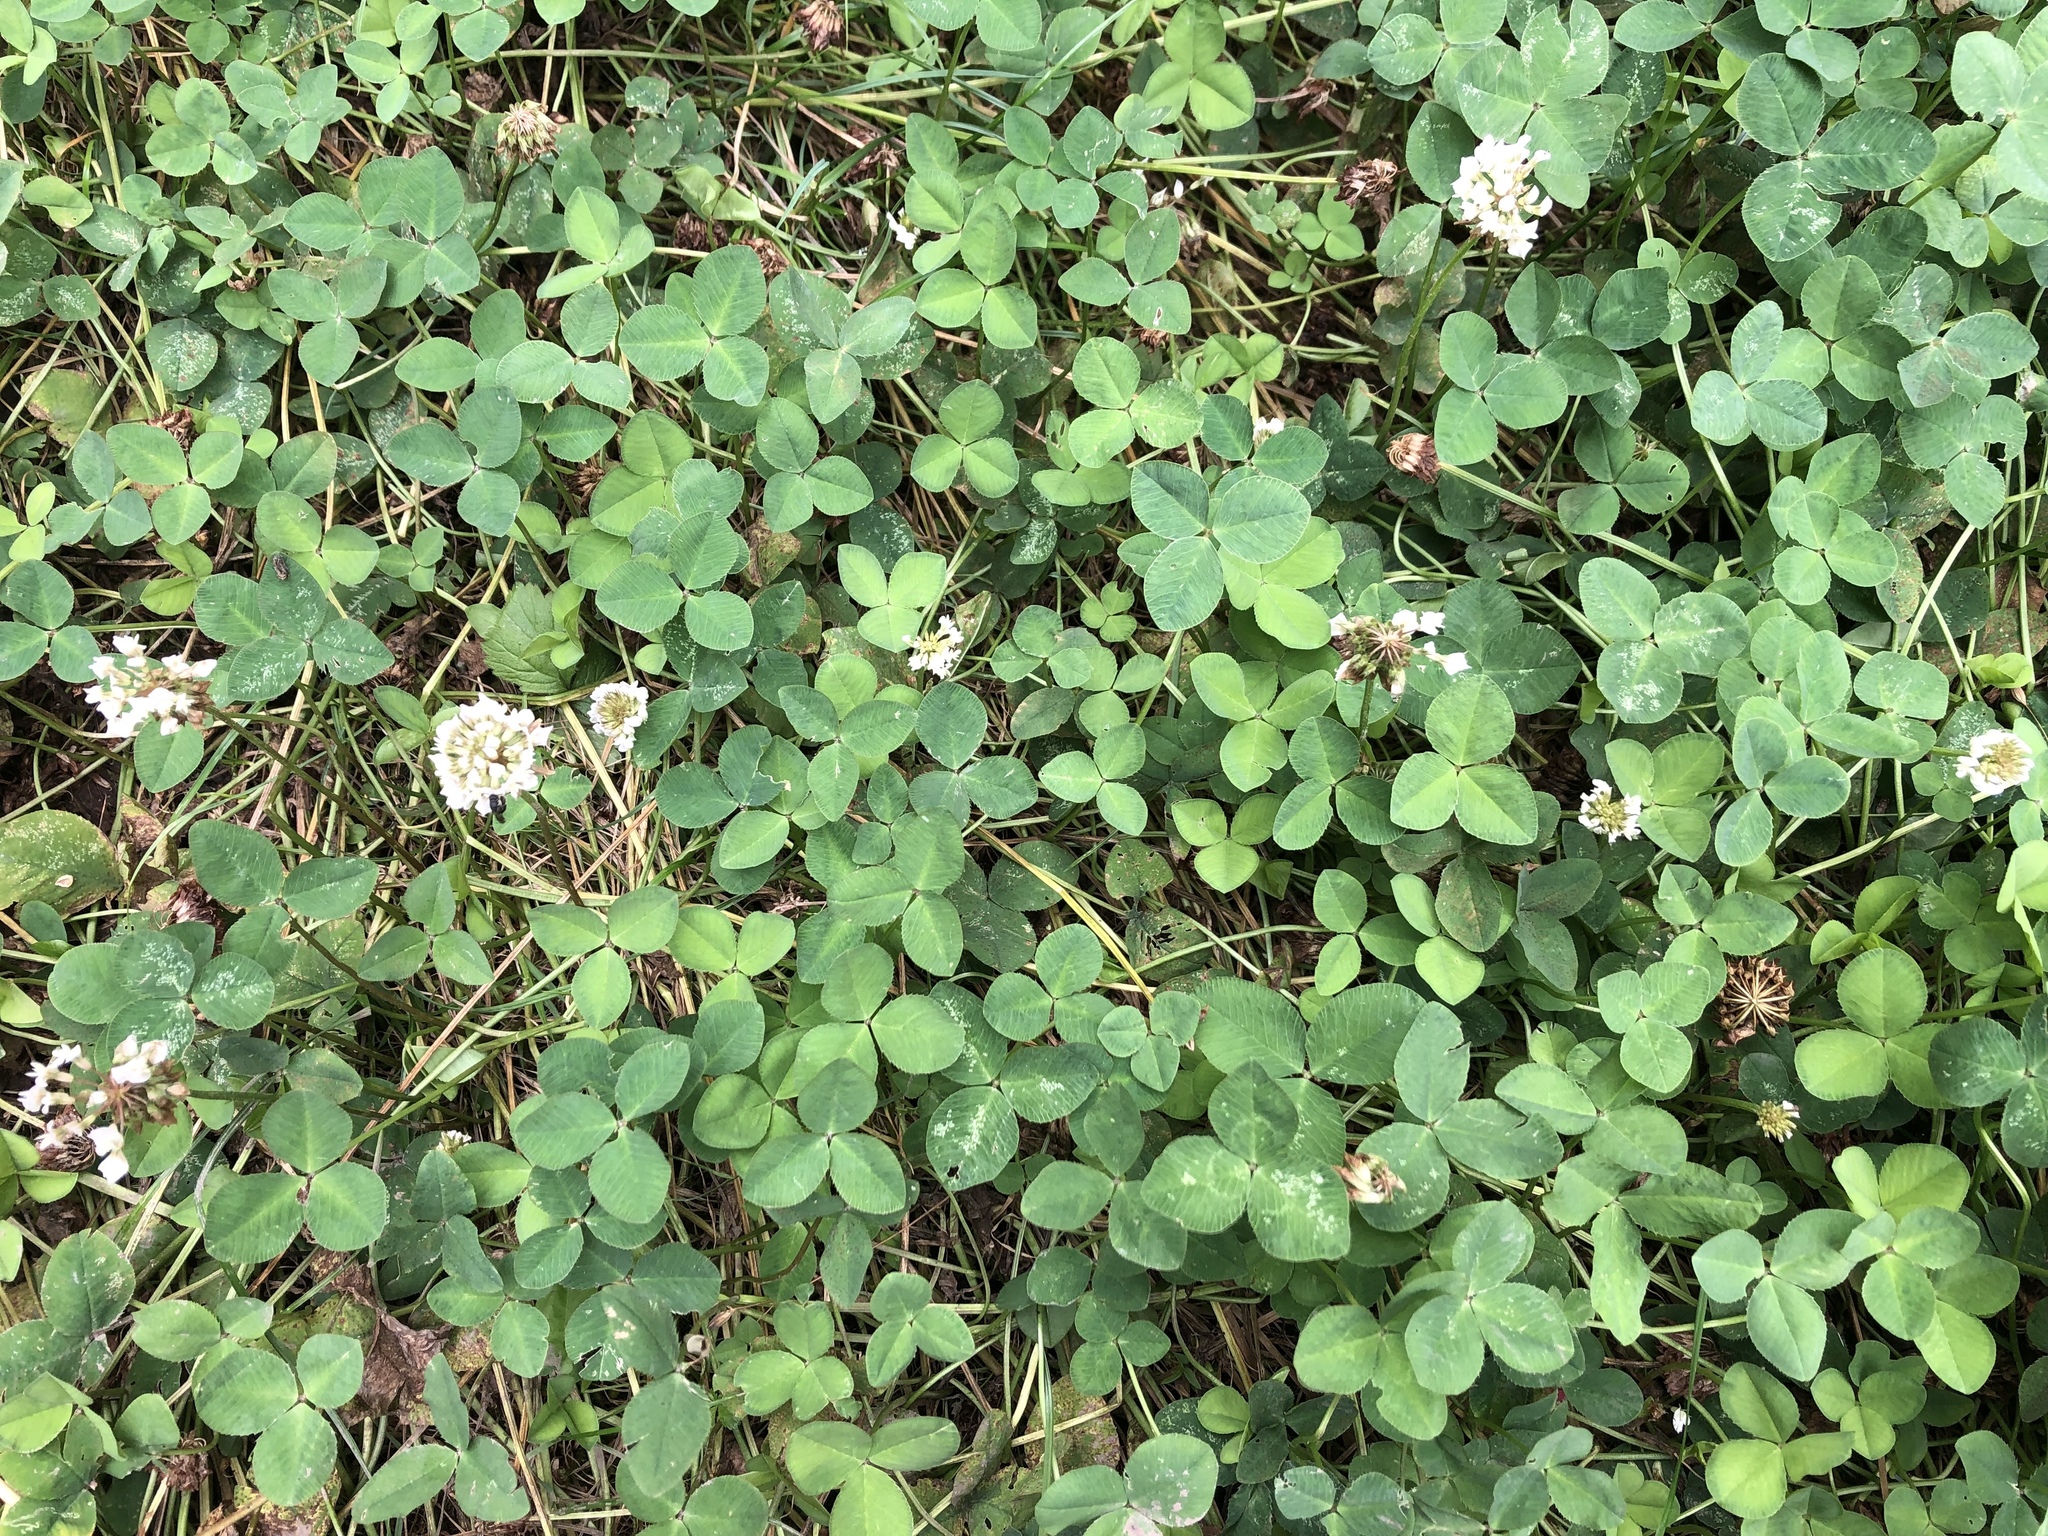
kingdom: Plantae
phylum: Tracheophyta
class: Magnoliopsida
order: Fabales
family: Fabaceae
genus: Trifolium
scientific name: Trifolium repens
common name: White clover
